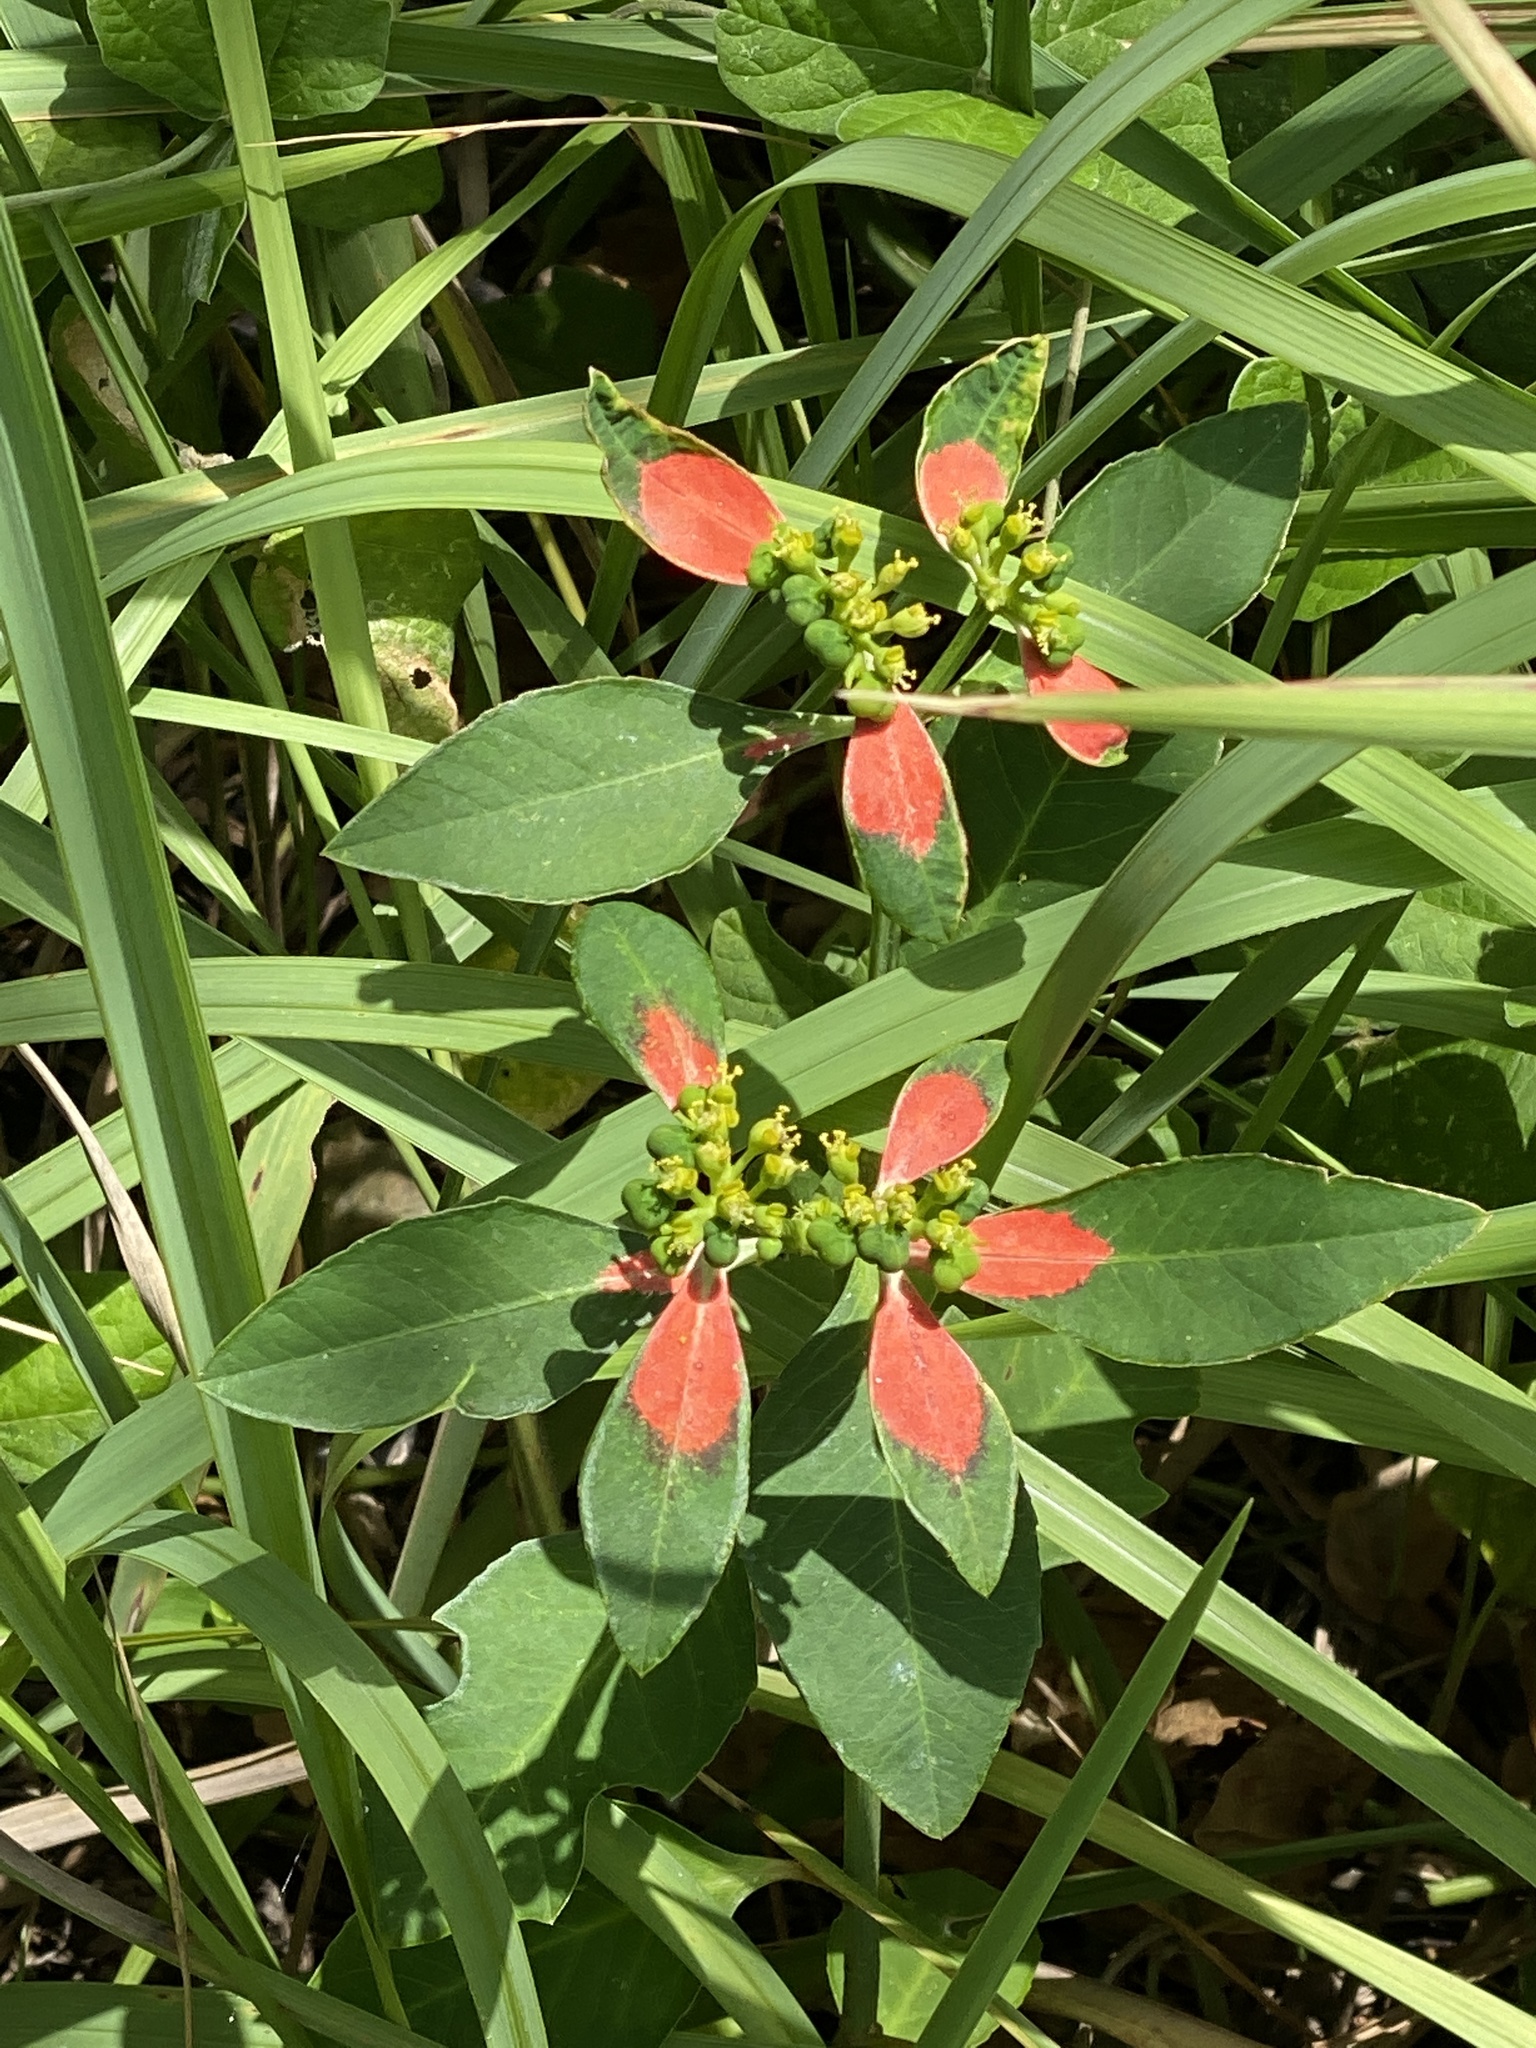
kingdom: Plantae
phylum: Tracheophyta
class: Magnoliopsida
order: Malpighiales
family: Euphorbiaceae
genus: Euphorbia
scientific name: Euphorbia heterophylla
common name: Mexican fireplant
